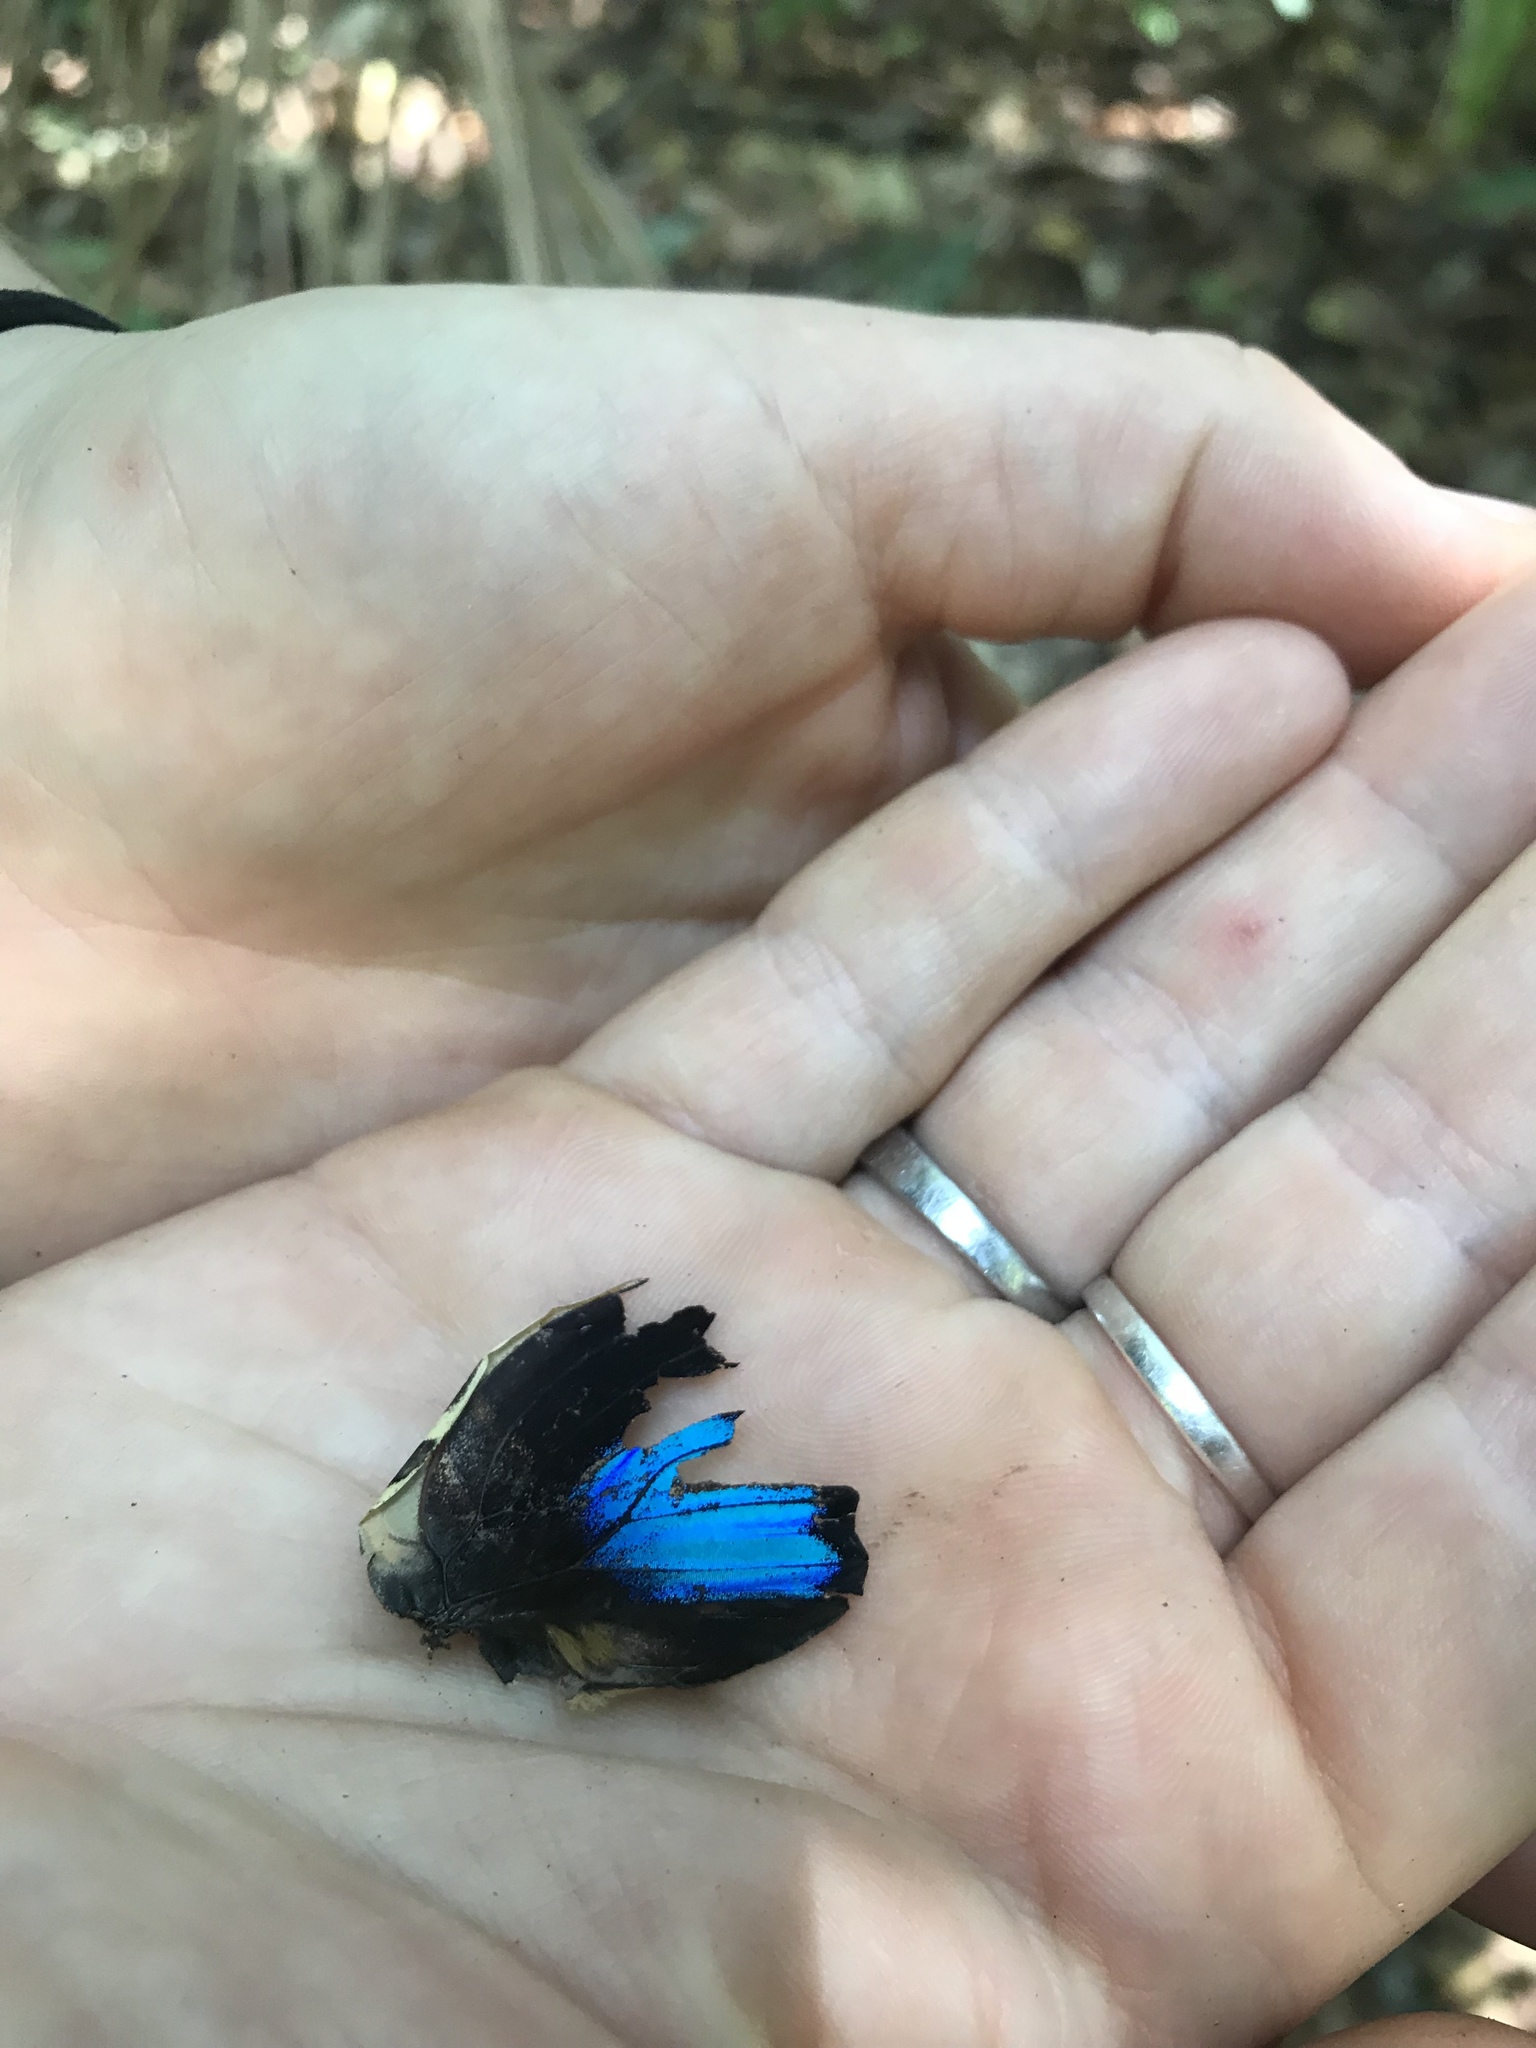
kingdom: Animalia
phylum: Arthropoda
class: Insecta
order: Lepidoptera
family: Nymphalidae
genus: Prepona
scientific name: Prepona amydon
